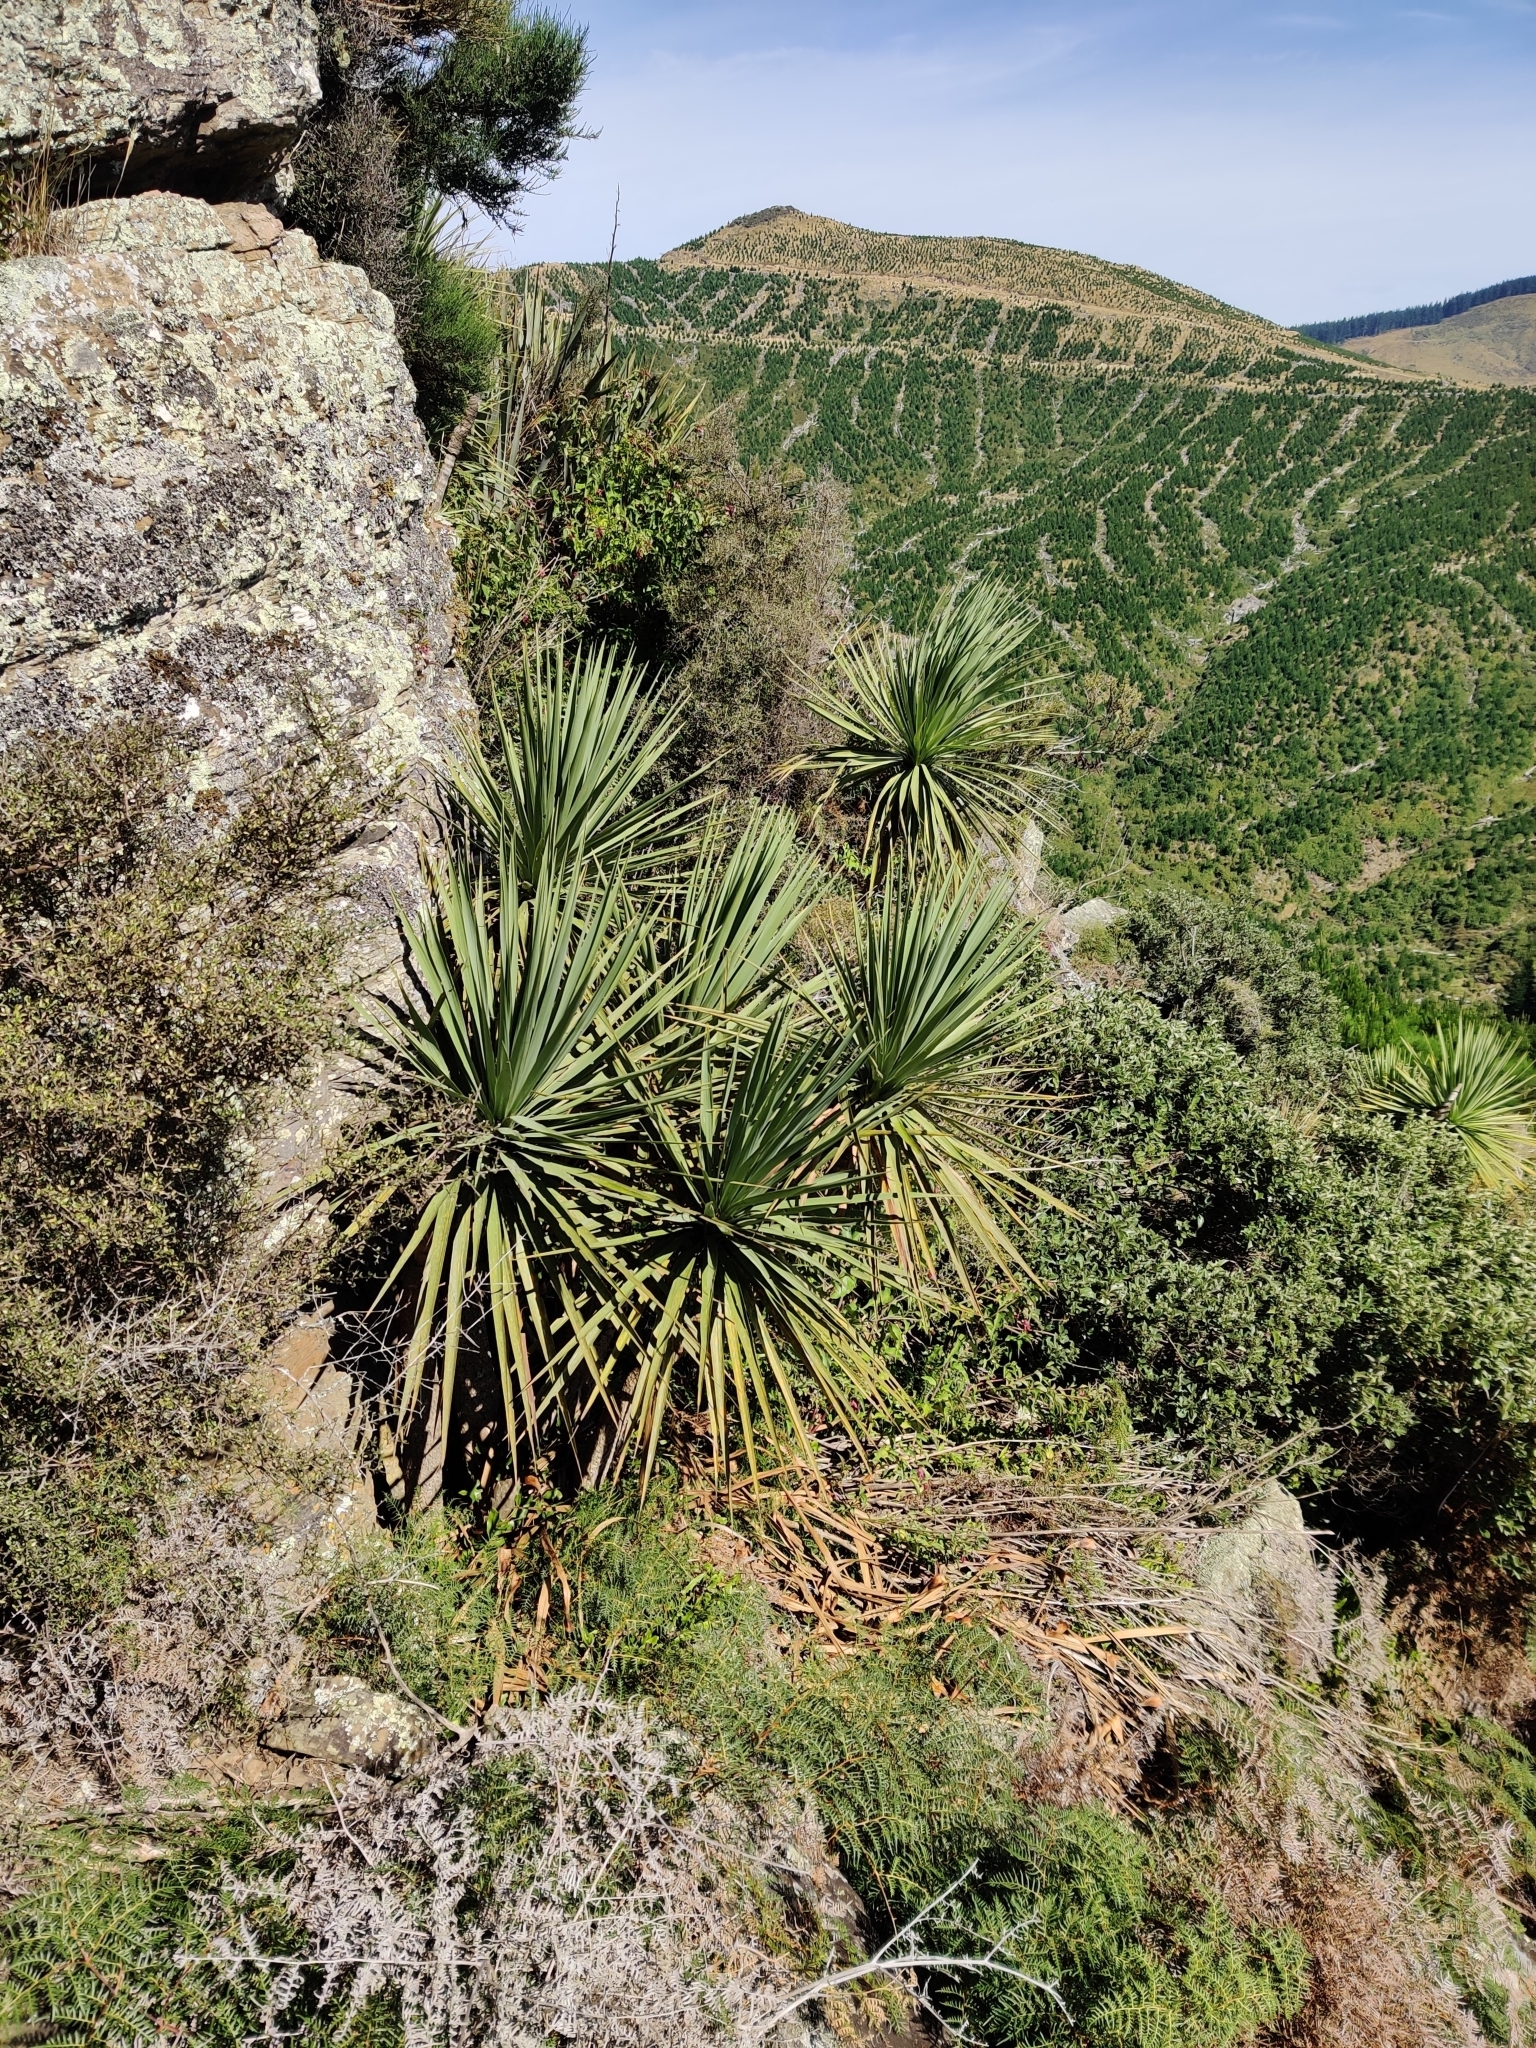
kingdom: Plantae
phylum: Tracheophyta
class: Liliopsida
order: Asparagales
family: Asparagaceae
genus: Cordyline
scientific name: Cordyline australis
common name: Cabbage-palm
